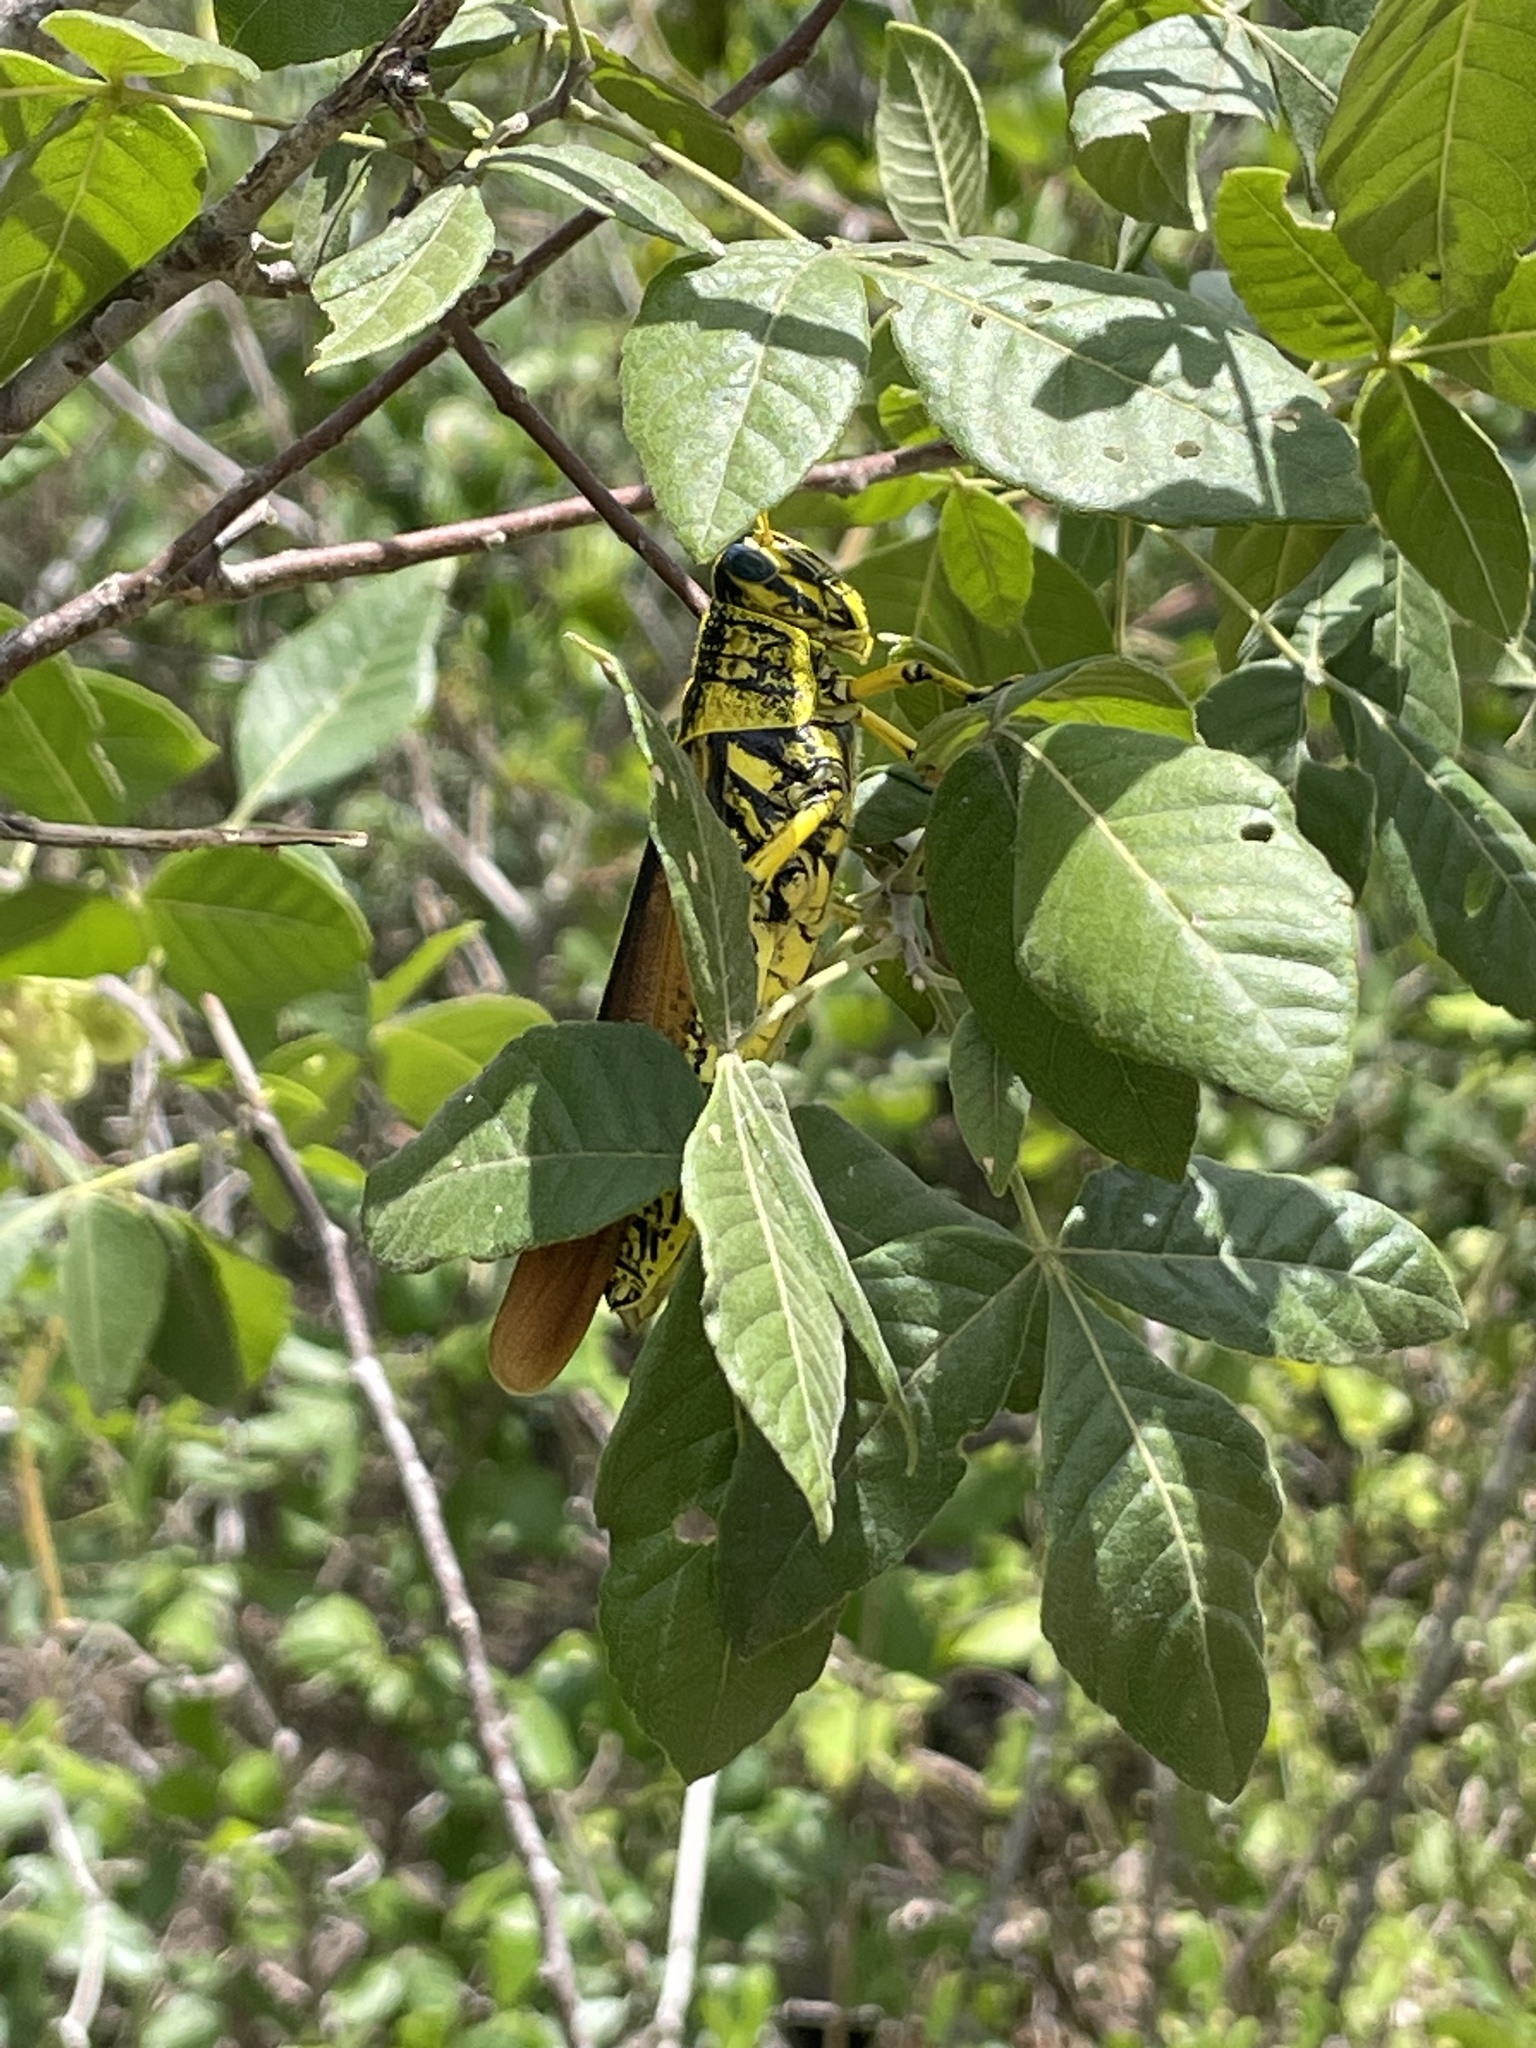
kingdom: Animalia
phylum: Arthropoda
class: Insecta
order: Orthoptera
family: Acrididae
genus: Schistocerca
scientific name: Schistocerca lineata
